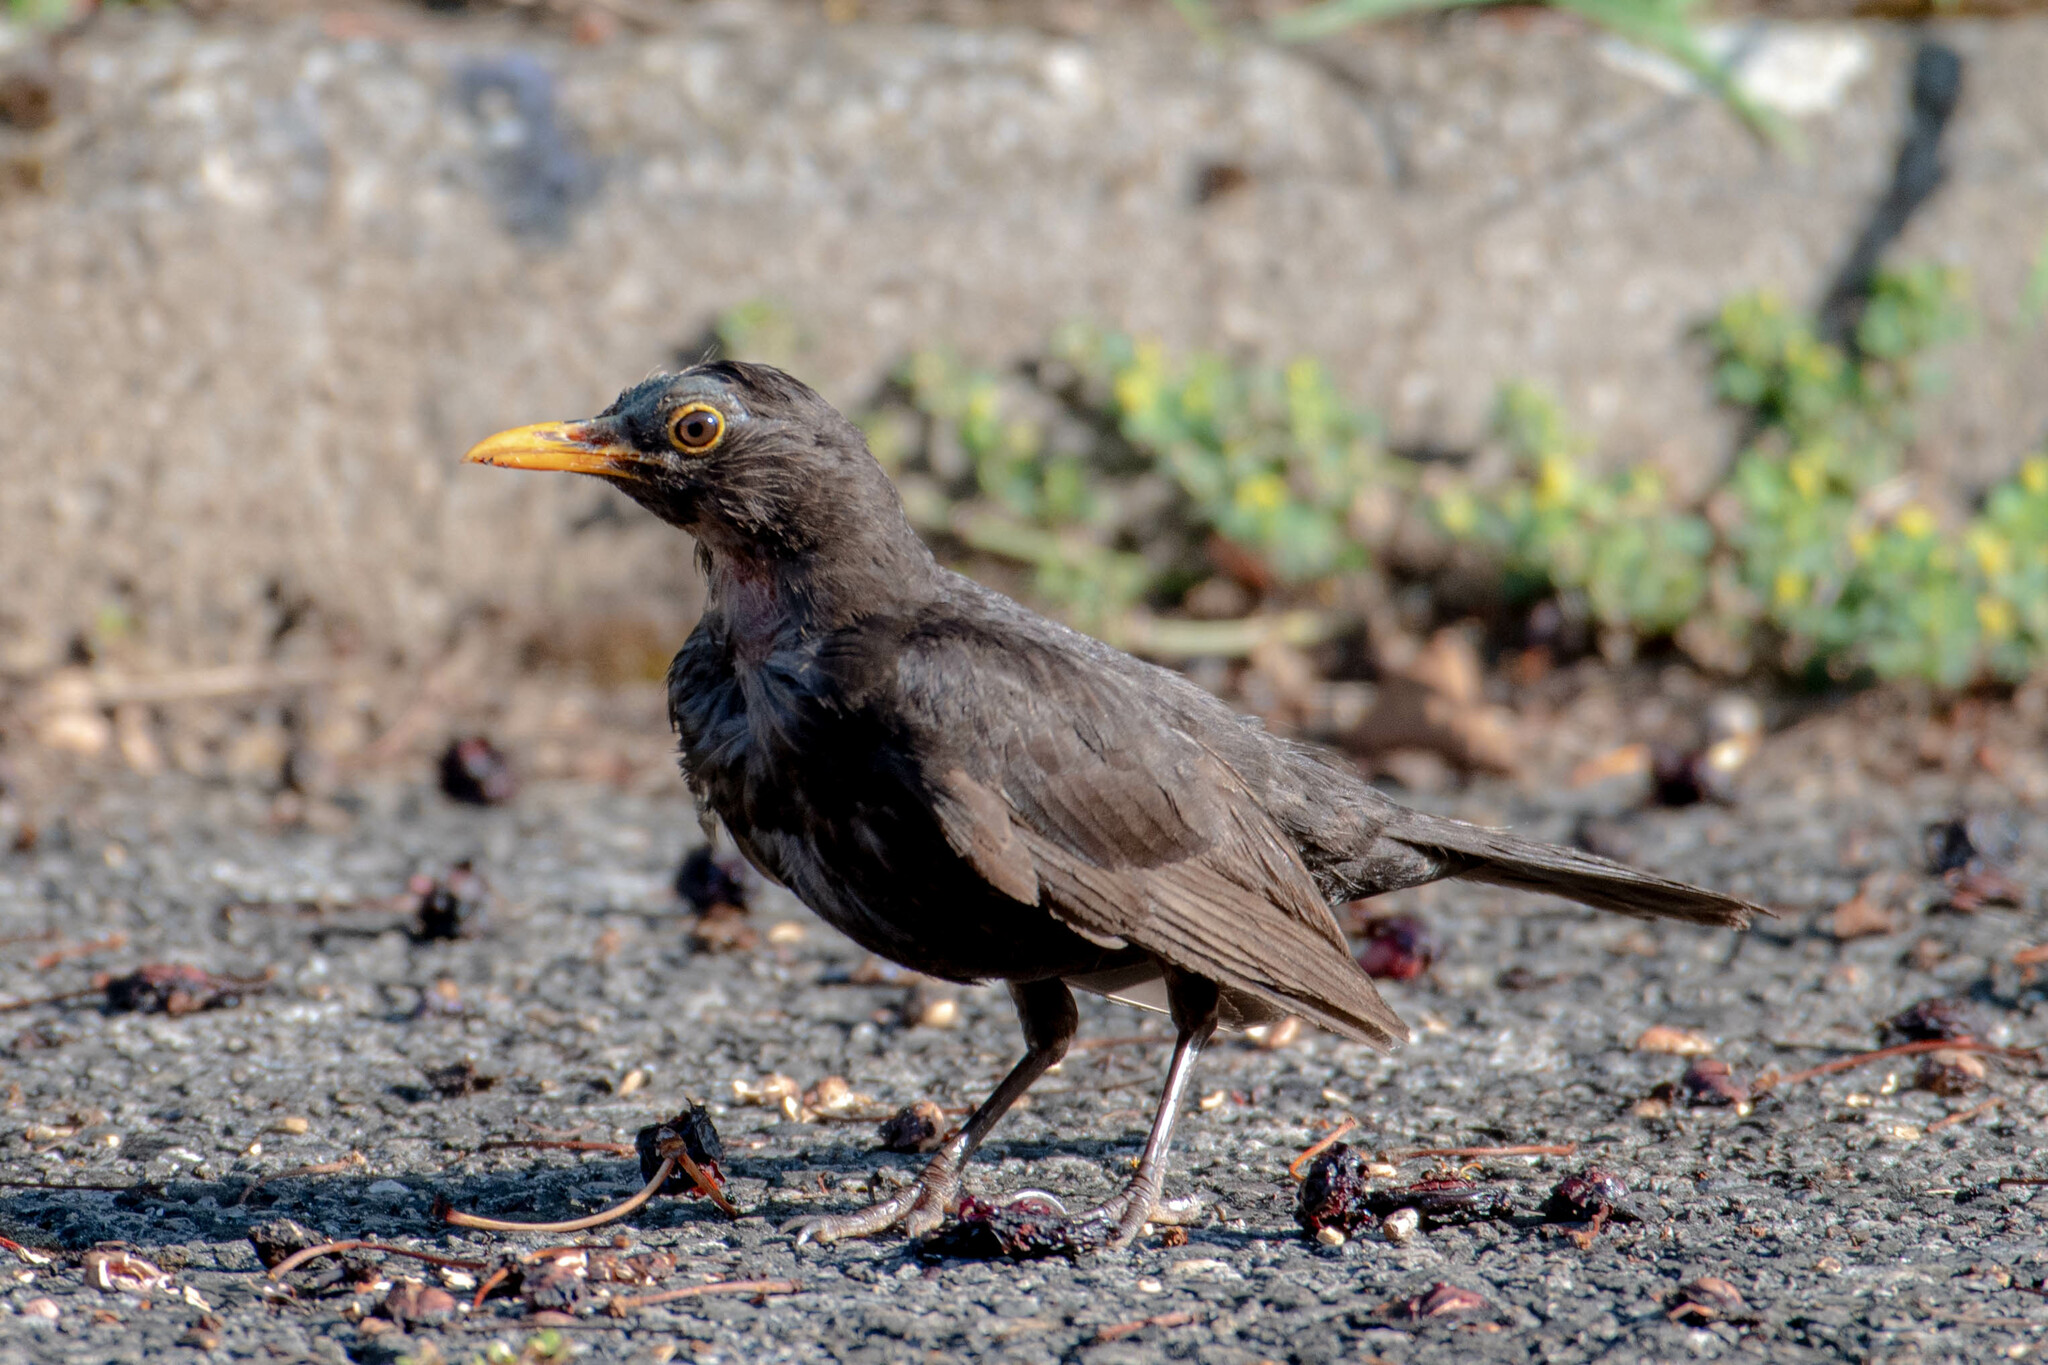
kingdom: Animalia
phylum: Chordata
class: Aves
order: Passeriformes
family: Turdidae
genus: Turdus
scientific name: Turdus merula
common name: Common blackbird
